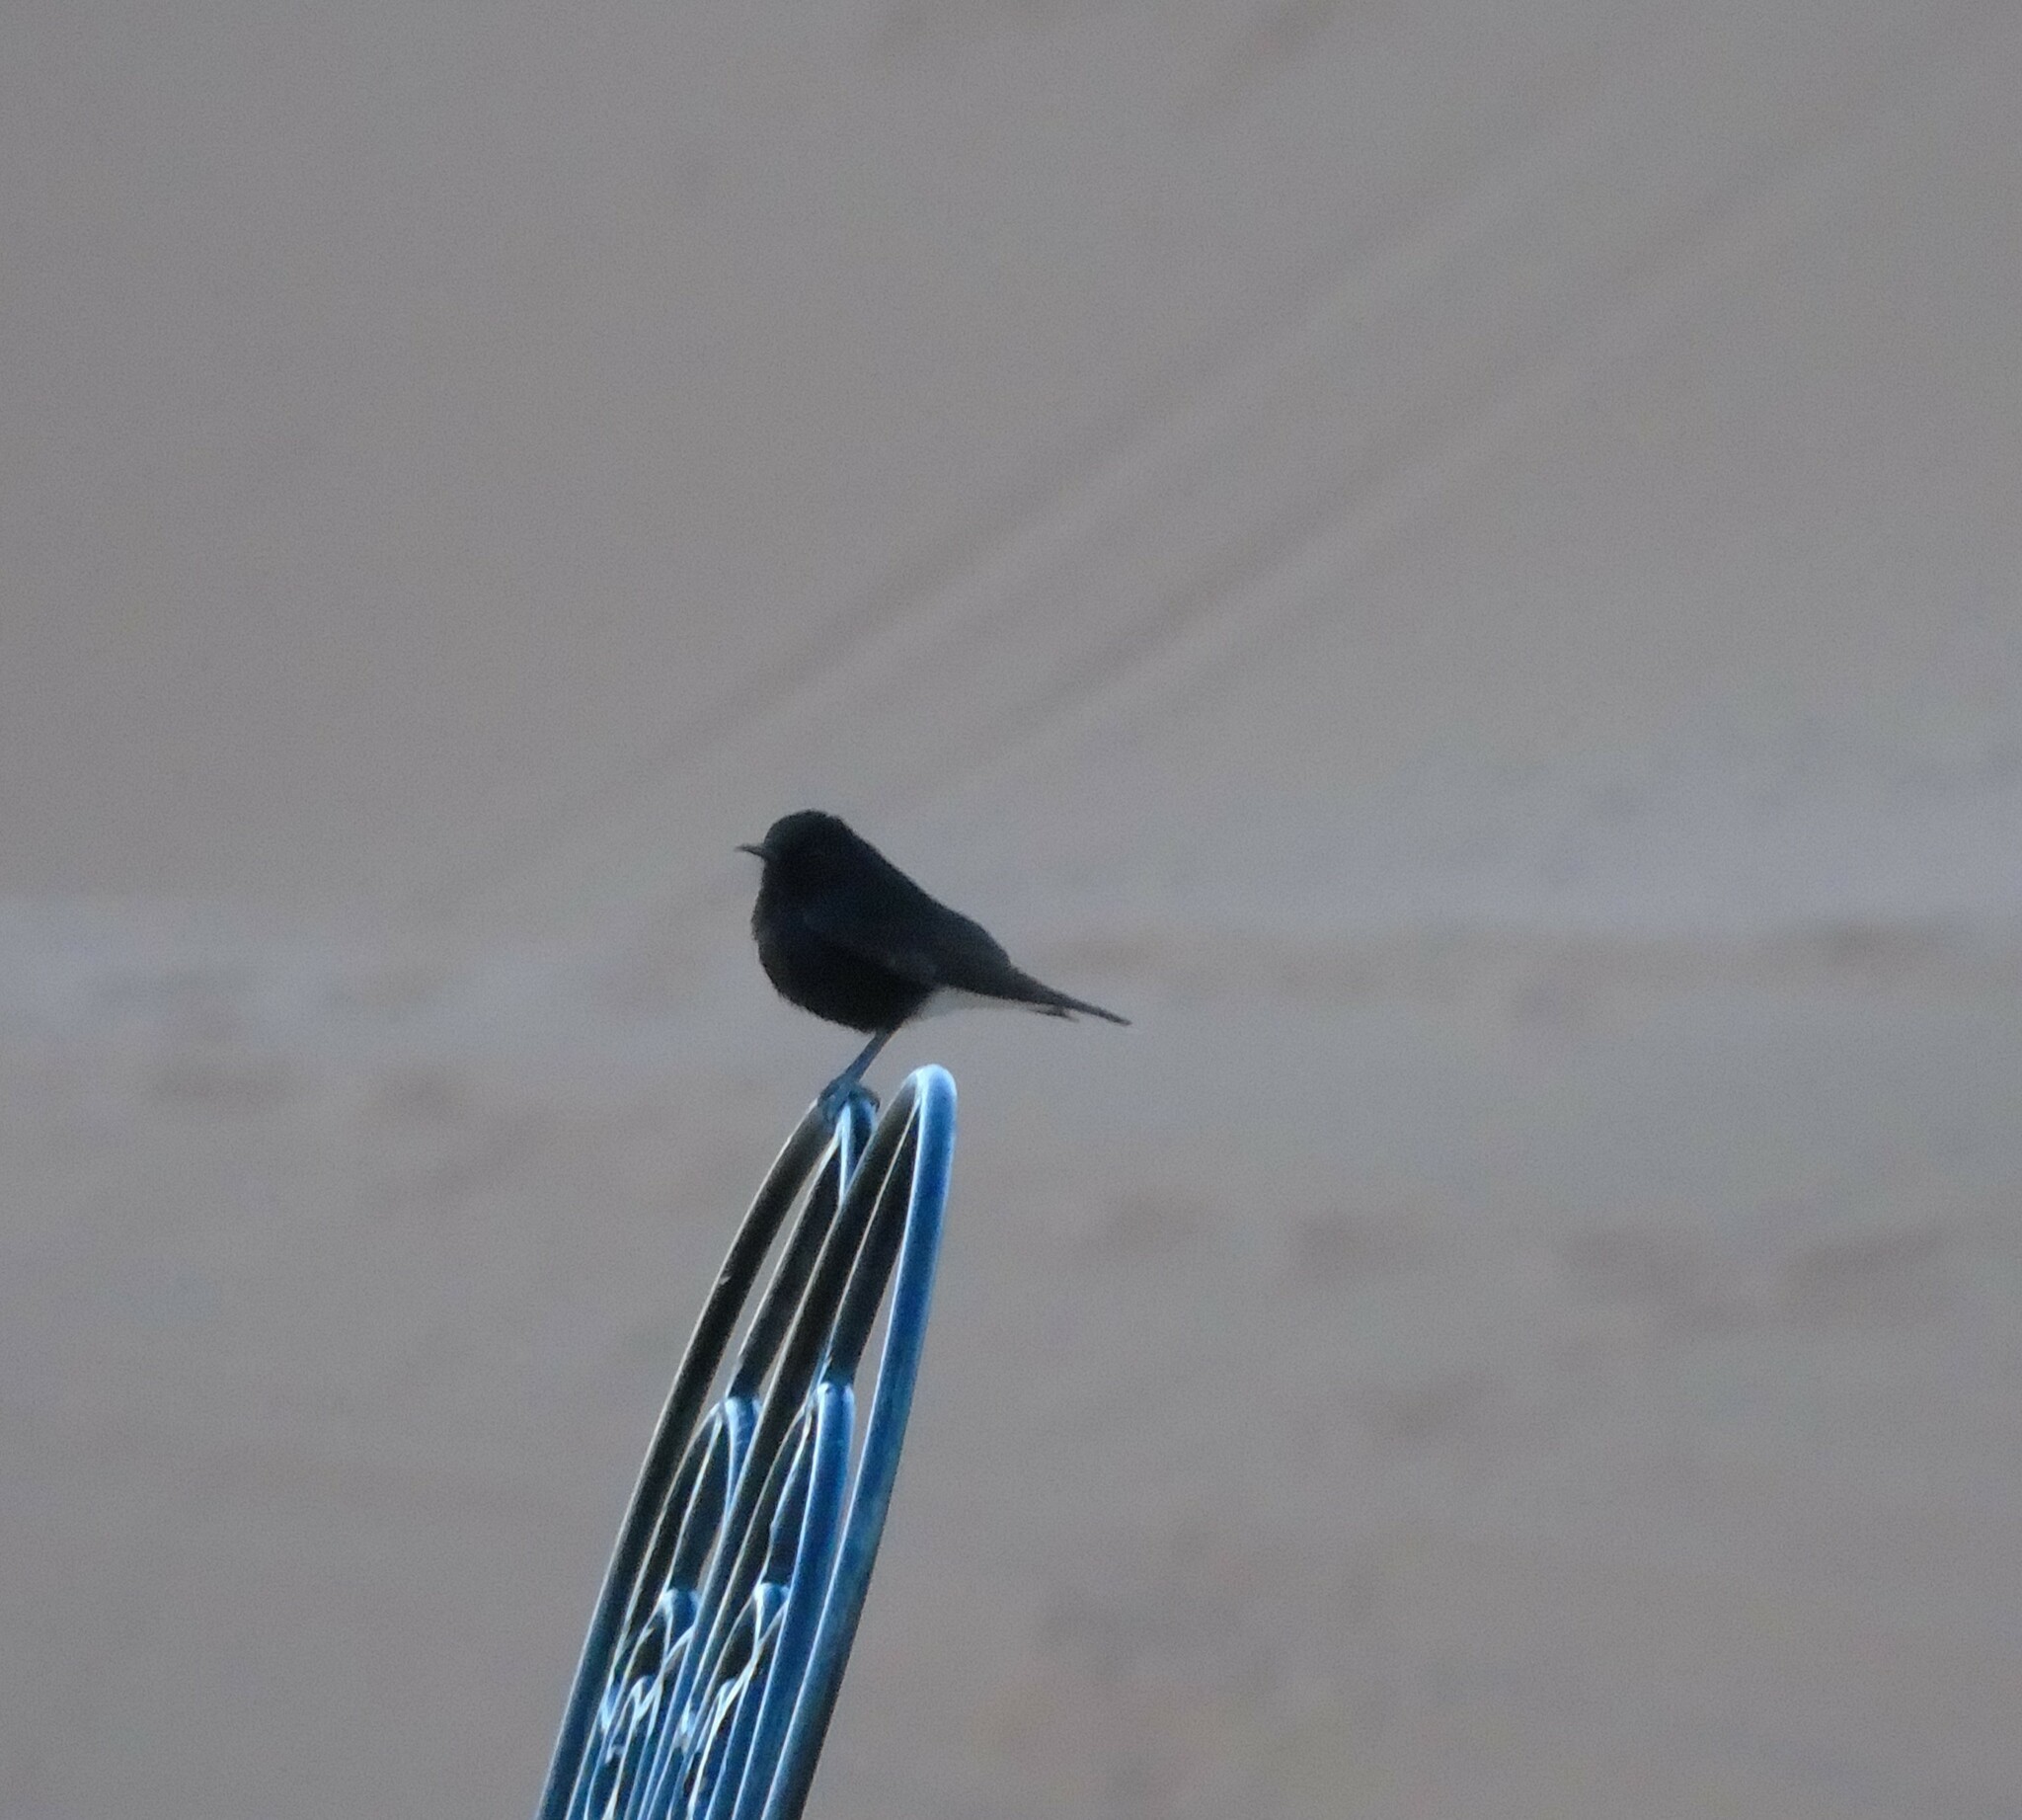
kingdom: Animalia
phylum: Chordata
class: Aves
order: Passeriformes
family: Muscicapidae
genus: Oenanthe
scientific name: Oenanthe leucopyga
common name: White-crowned wheatear
